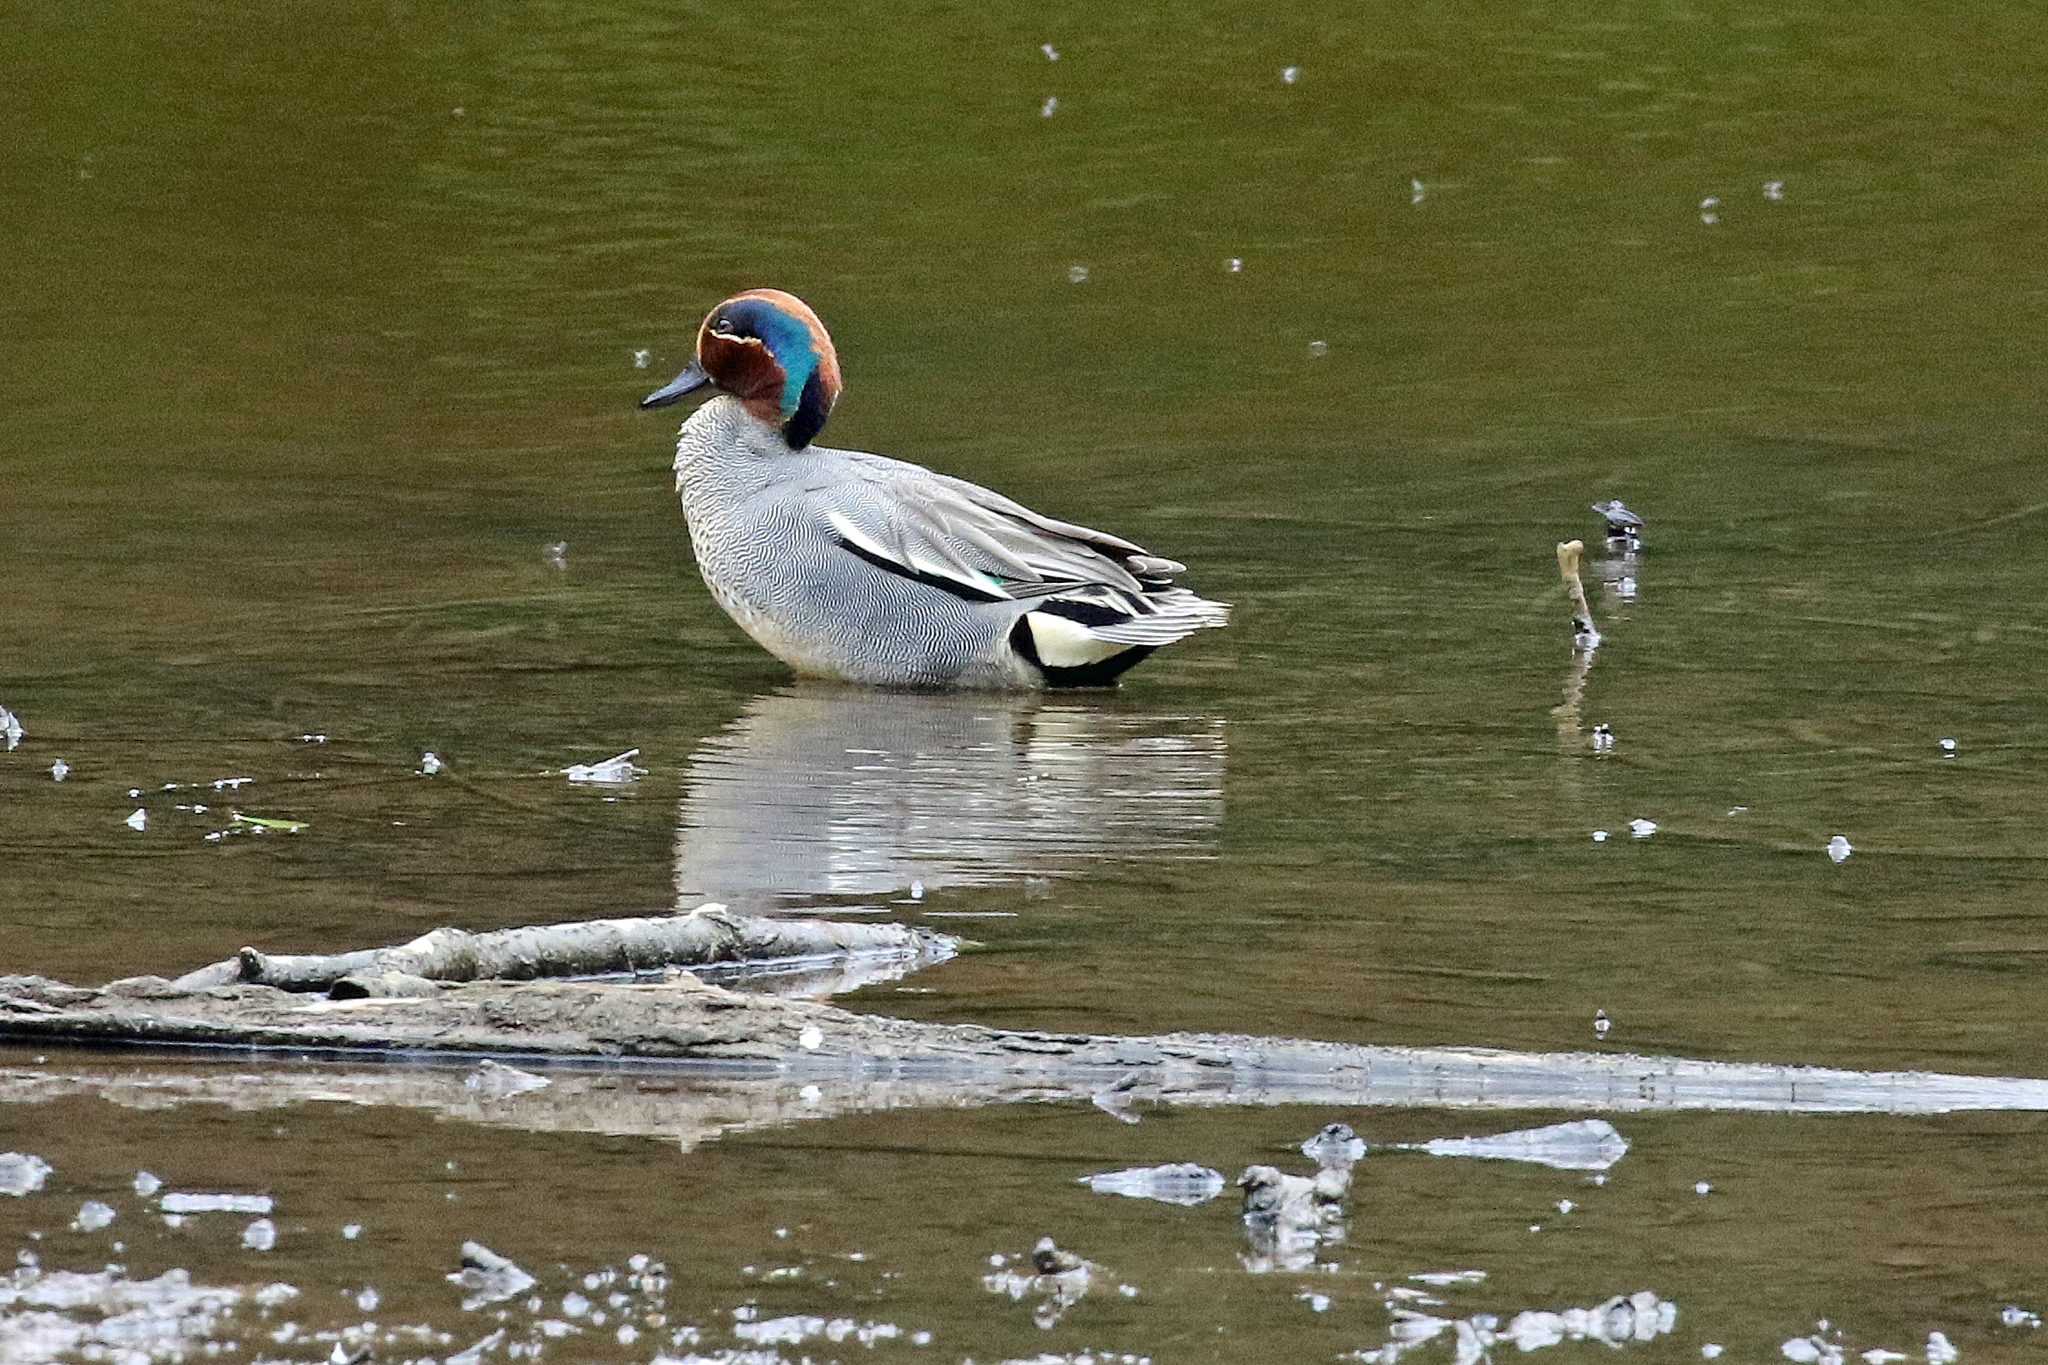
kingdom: Animalia
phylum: Chordata
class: Aves
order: Anseriformes
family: Anatidae
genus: Anas
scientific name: Anas crecca
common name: Eurasian teal
